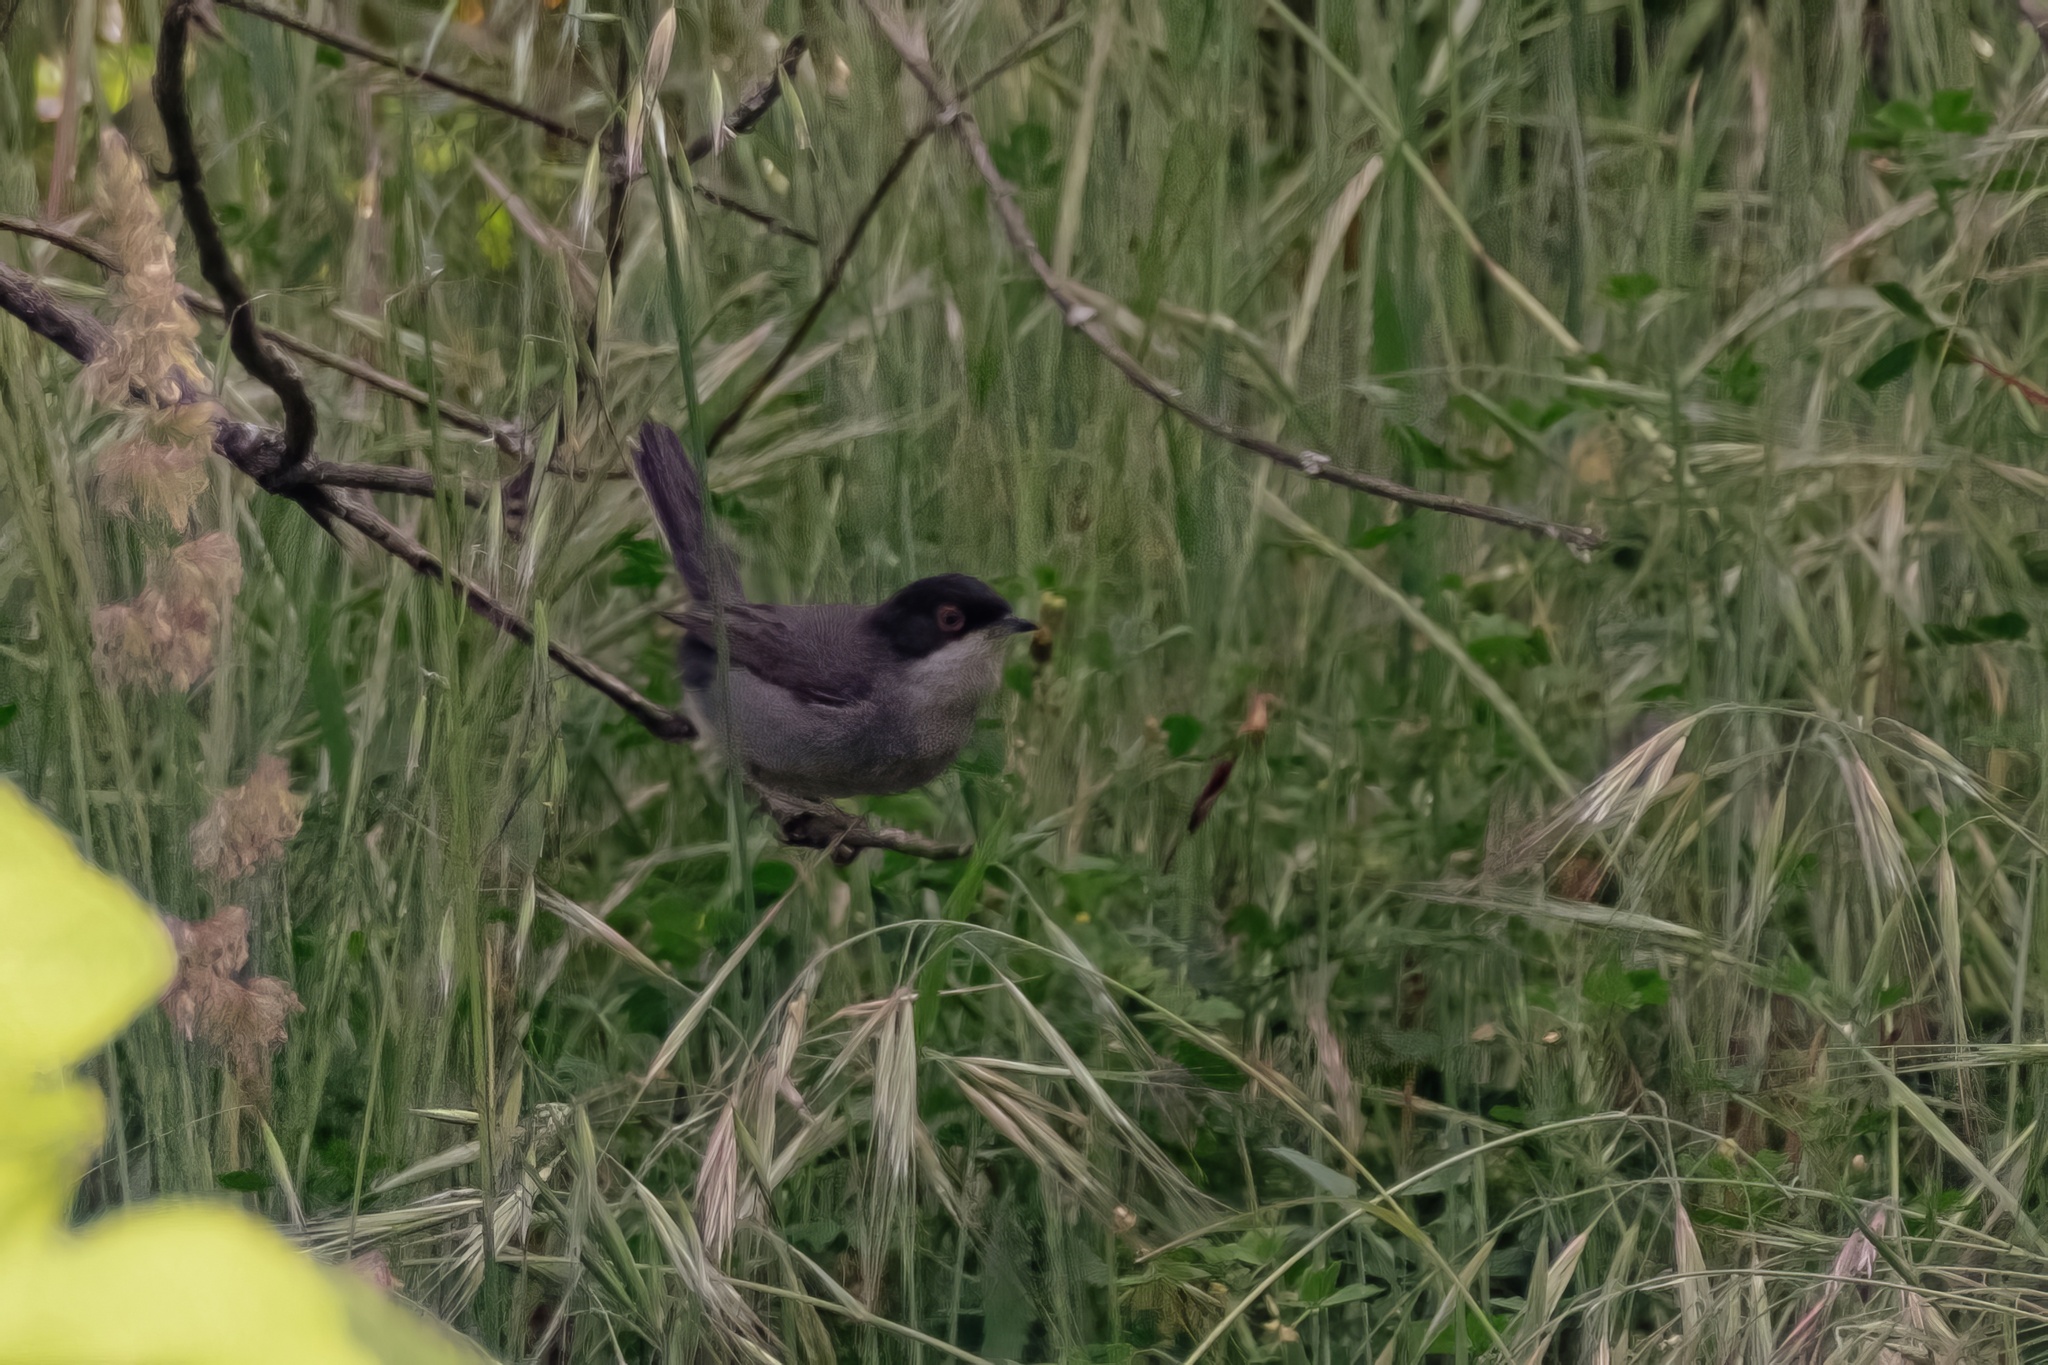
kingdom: Animalia
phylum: Chordata
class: Aves
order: Passeriformes
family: Sylviidae
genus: Curruca
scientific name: Curruca melanocephala
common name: Sardinian warbler
